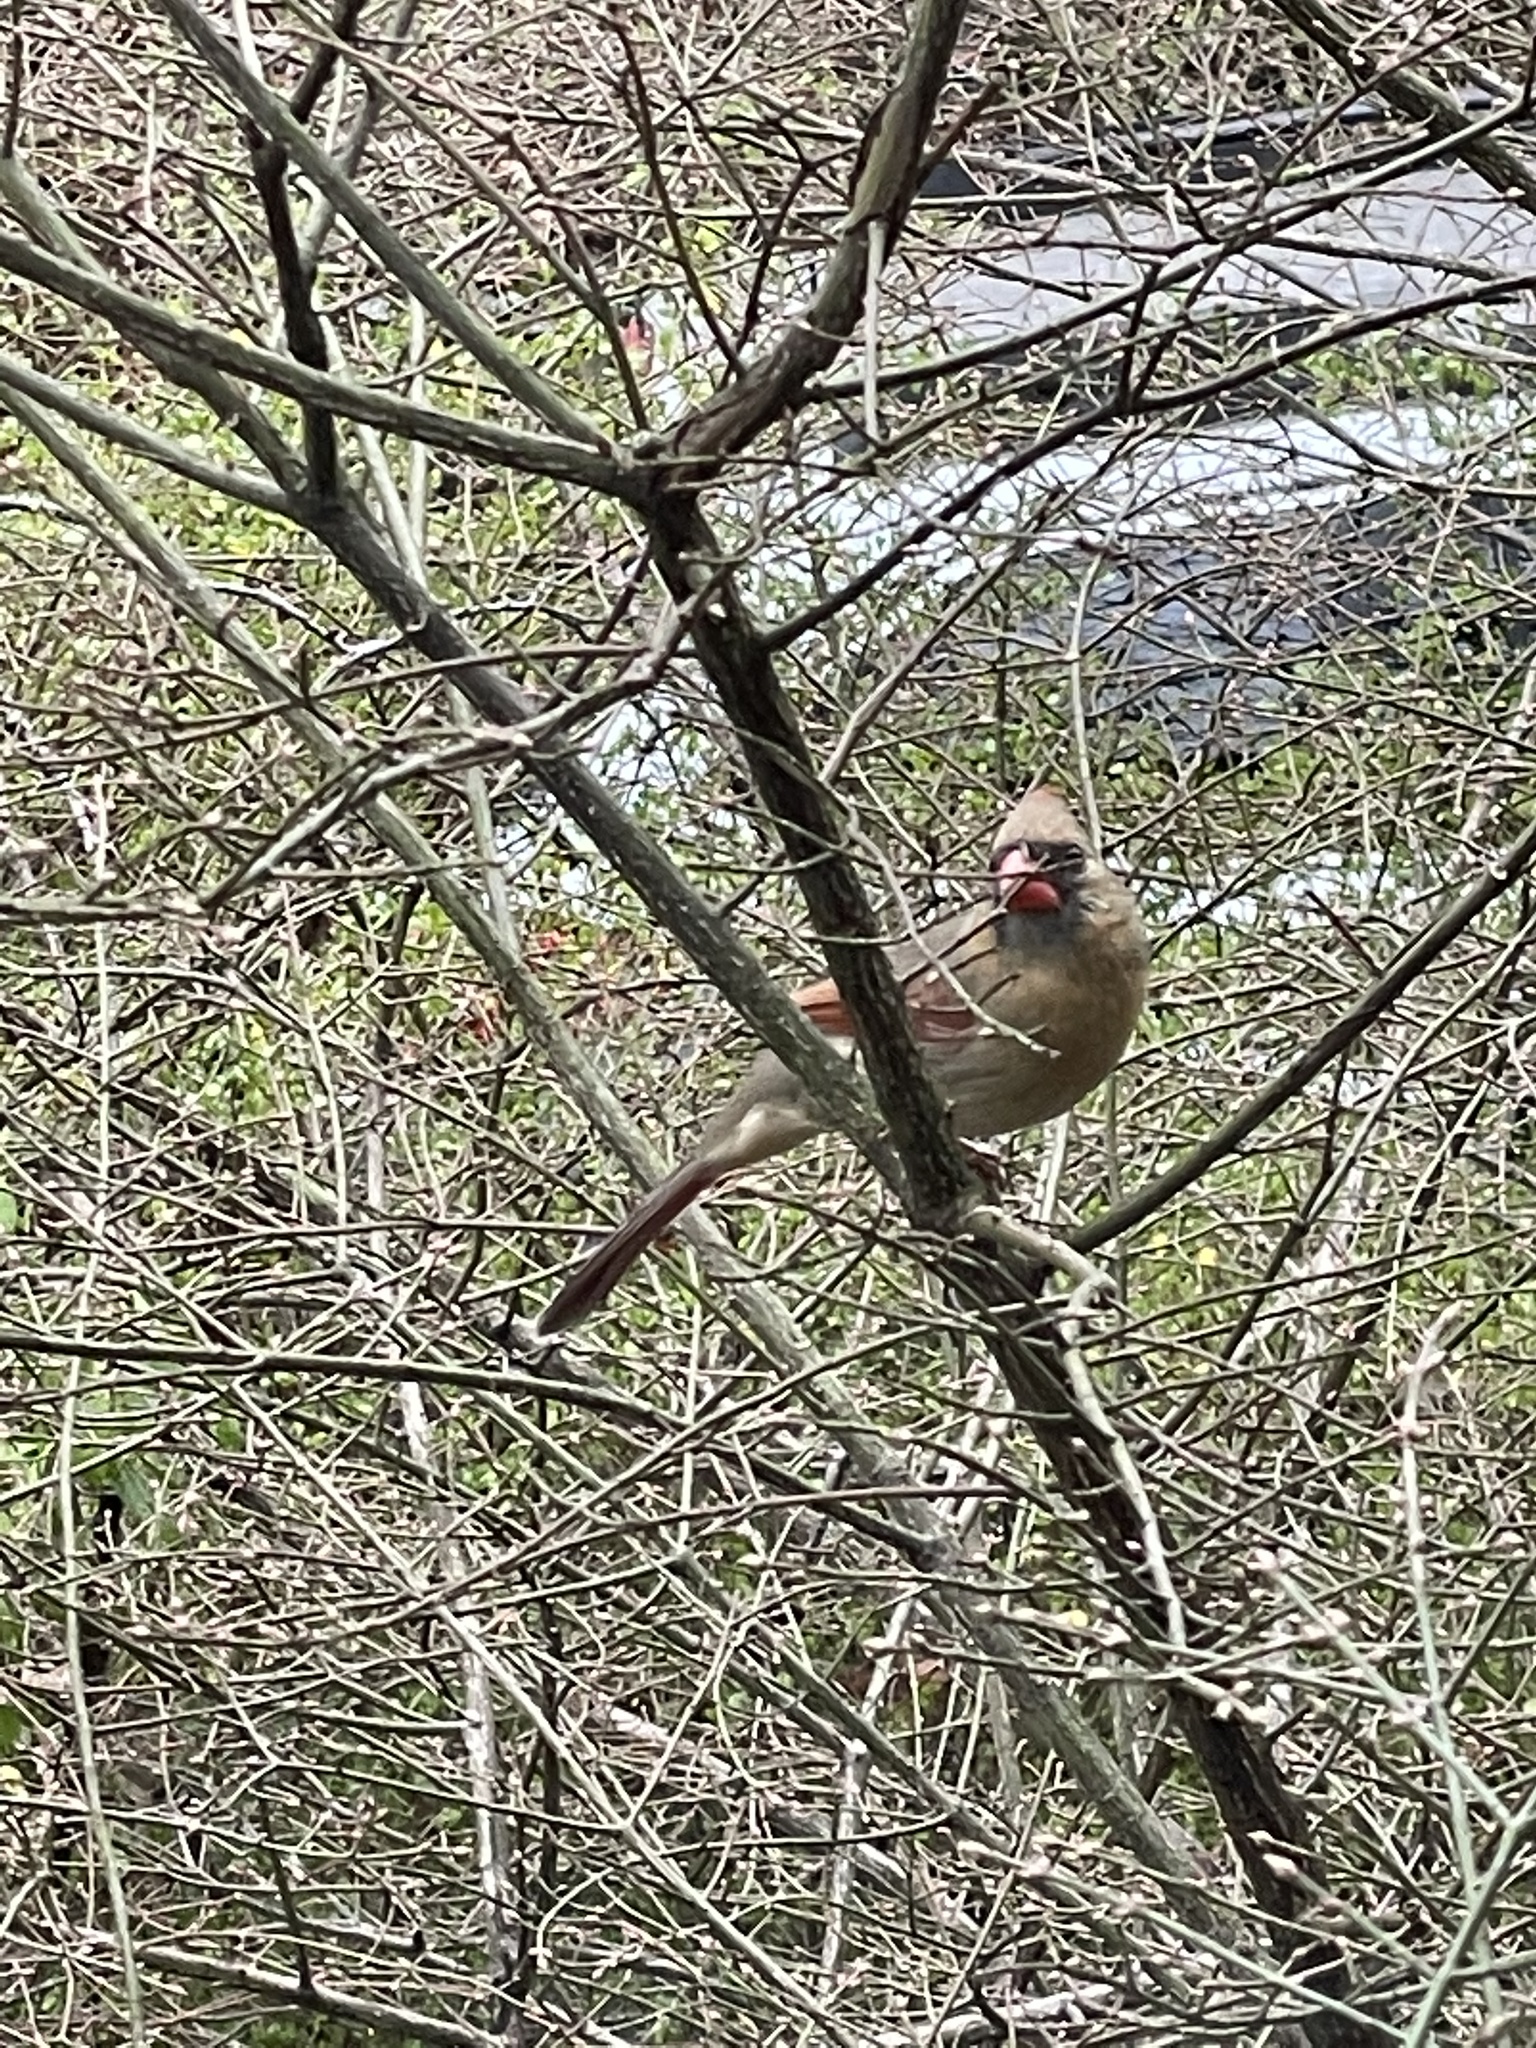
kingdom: Animalia
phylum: Chordata
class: Aves
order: Passeriformes
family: Cardinalidae
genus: Cardinalis
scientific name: Cardinalis cardinalis
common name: Northern cardinal
